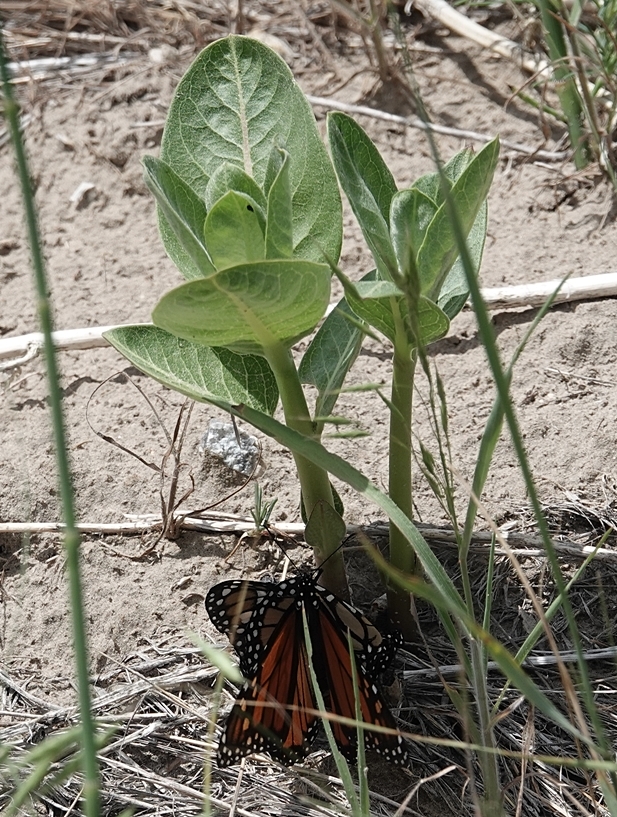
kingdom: Animalia
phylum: Arthropoda
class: Insecta
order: Lepidoptera
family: Nymphalidae
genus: Danaus
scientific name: Danaus plexippus
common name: Monarch
